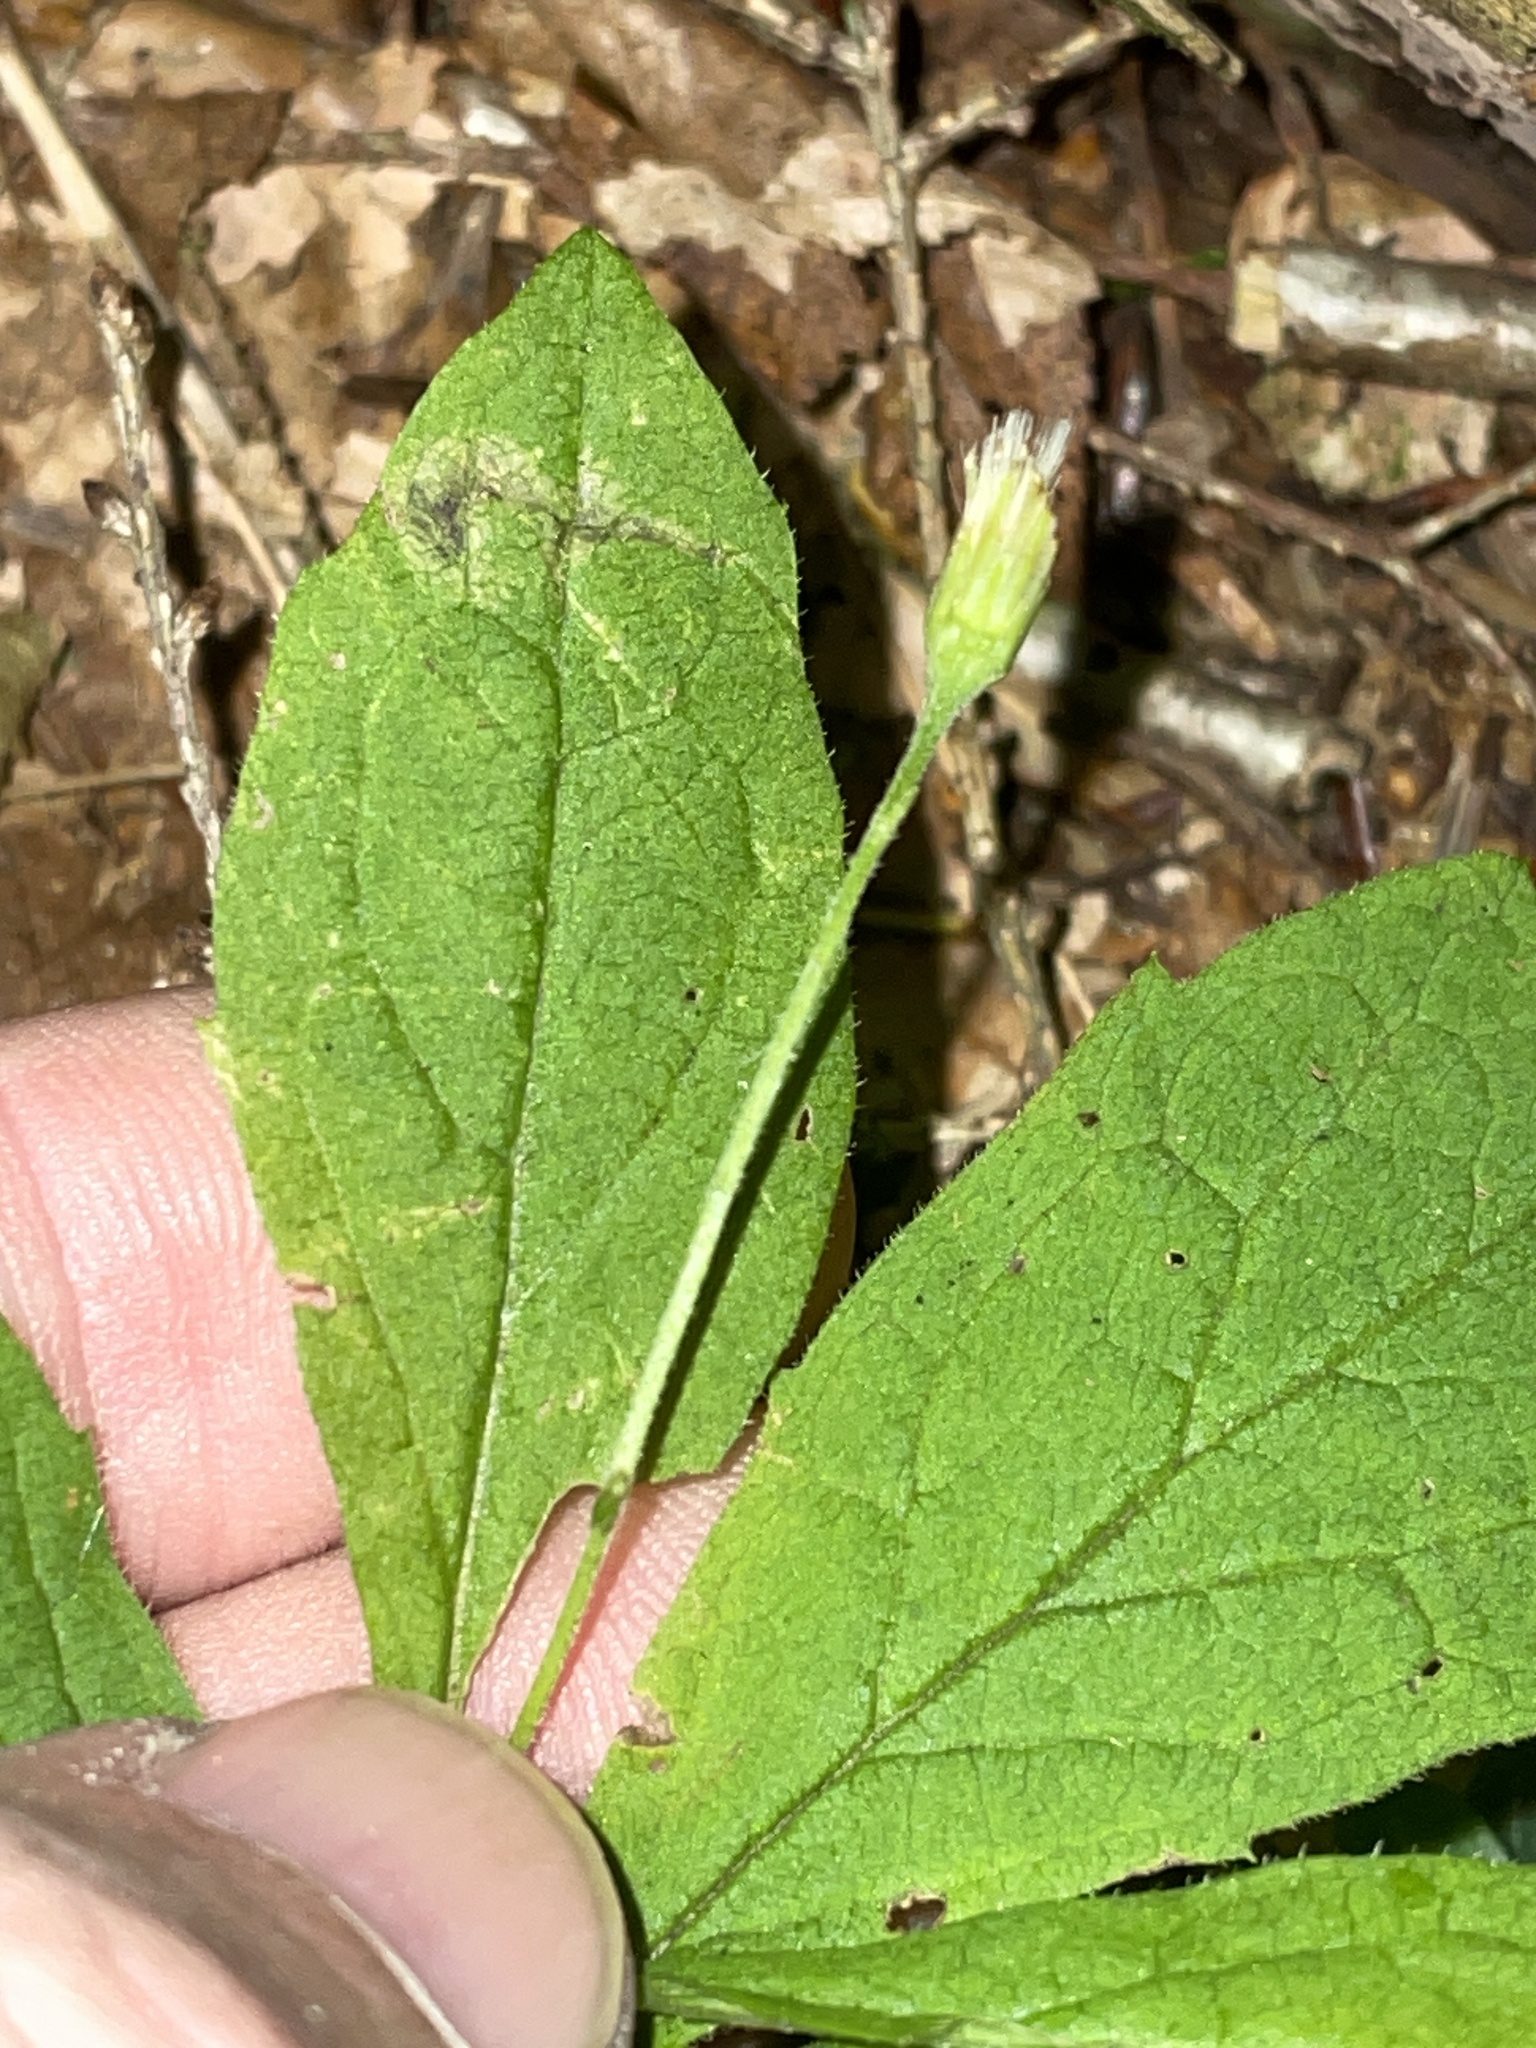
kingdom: Plantae
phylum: Tracheophyta
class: Magnoliopsida
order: Asterales
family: Asteraceae
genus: Oclemena
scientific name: Oclemena acuminata
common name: Mountain aster
